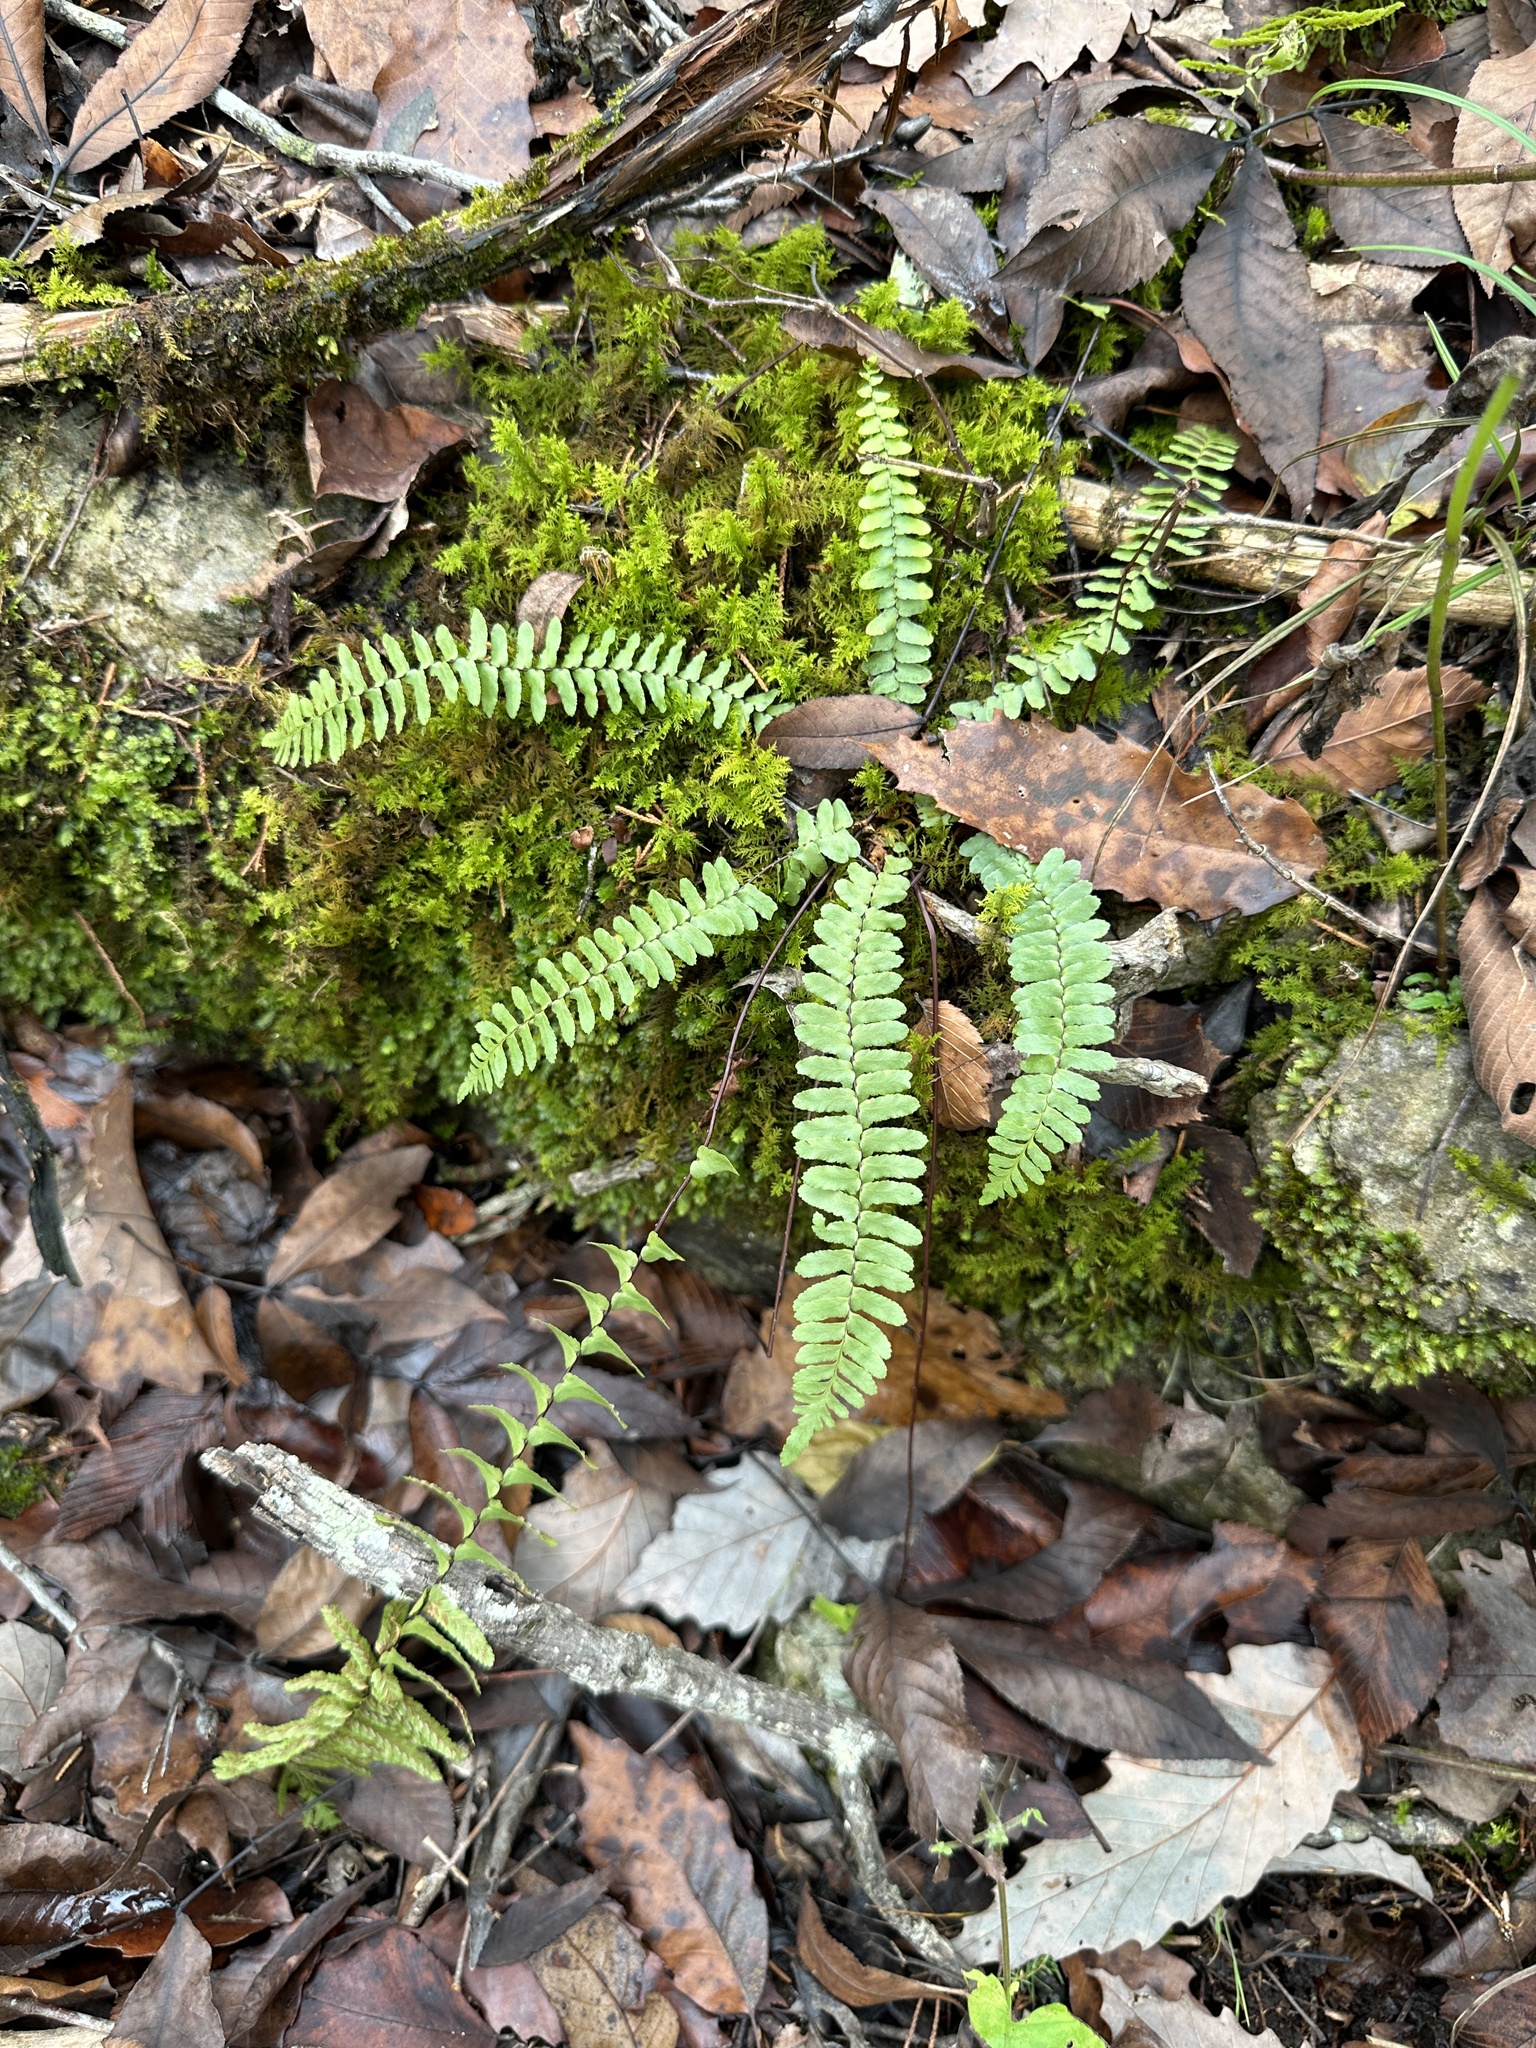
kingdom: Plantae
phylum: Tracheophyta
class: Polypodiopsida
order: Polypodiales
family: Aspleniaceae
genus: Asplenium
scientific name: Asplenium platyneuron
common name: Ebony spleenwort
